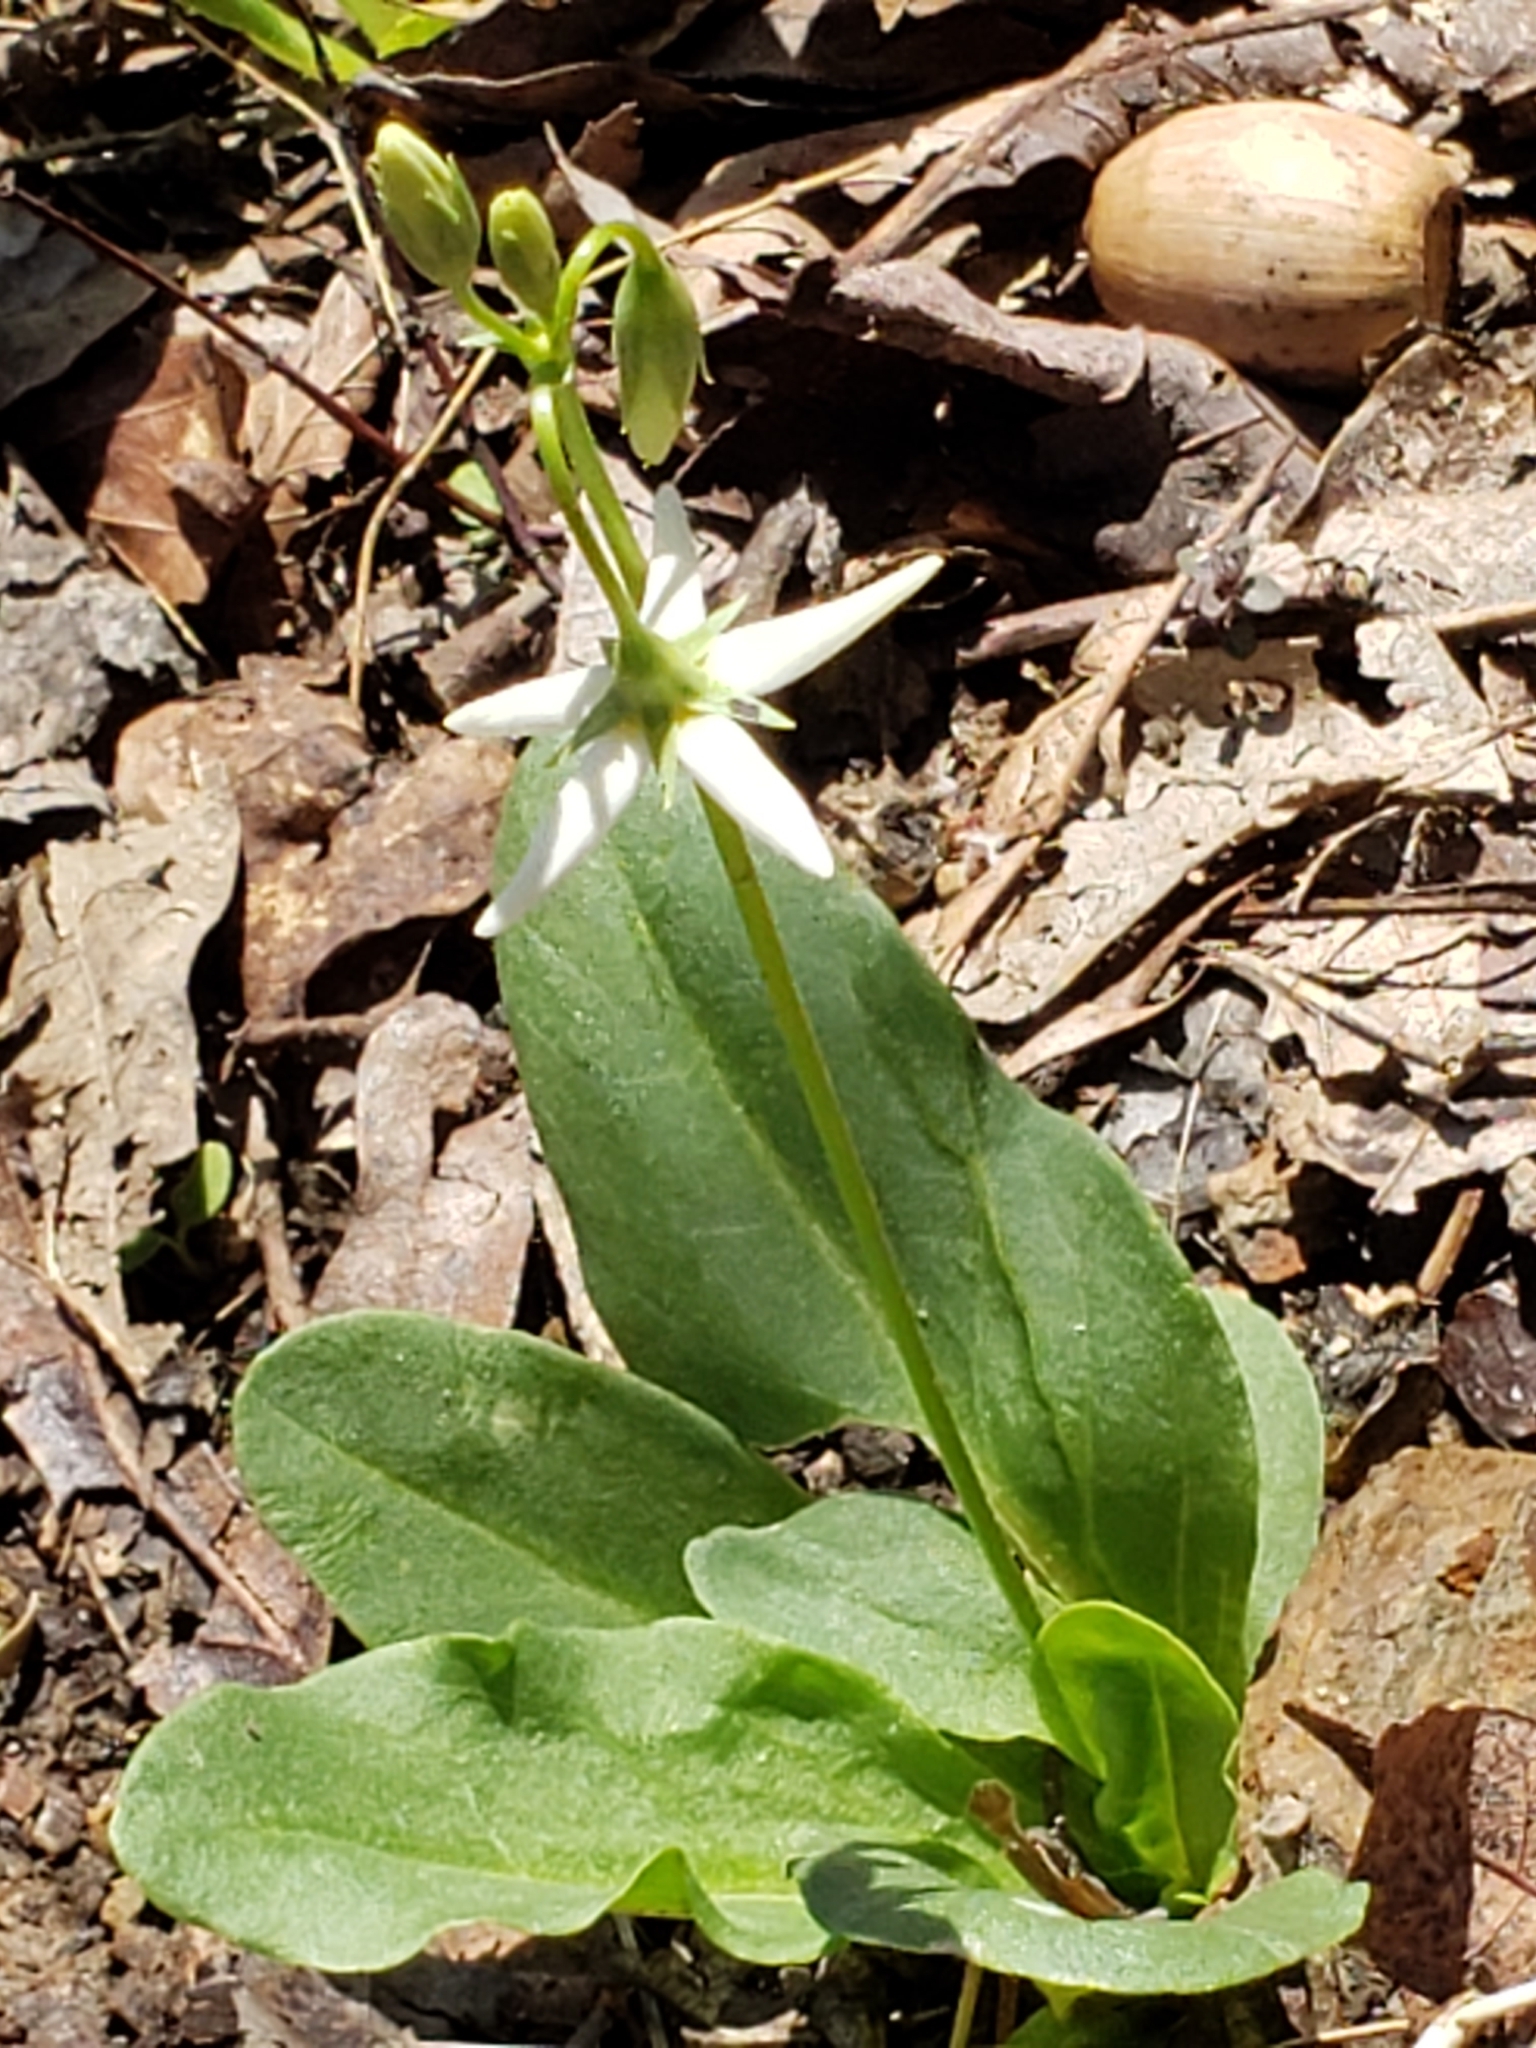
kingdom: Plantae
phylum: Tracheophyta
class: Magnoliopsida
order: Ericales
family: Primulaceae
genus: Dodecatheon
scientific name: Dodecatheon meadia
